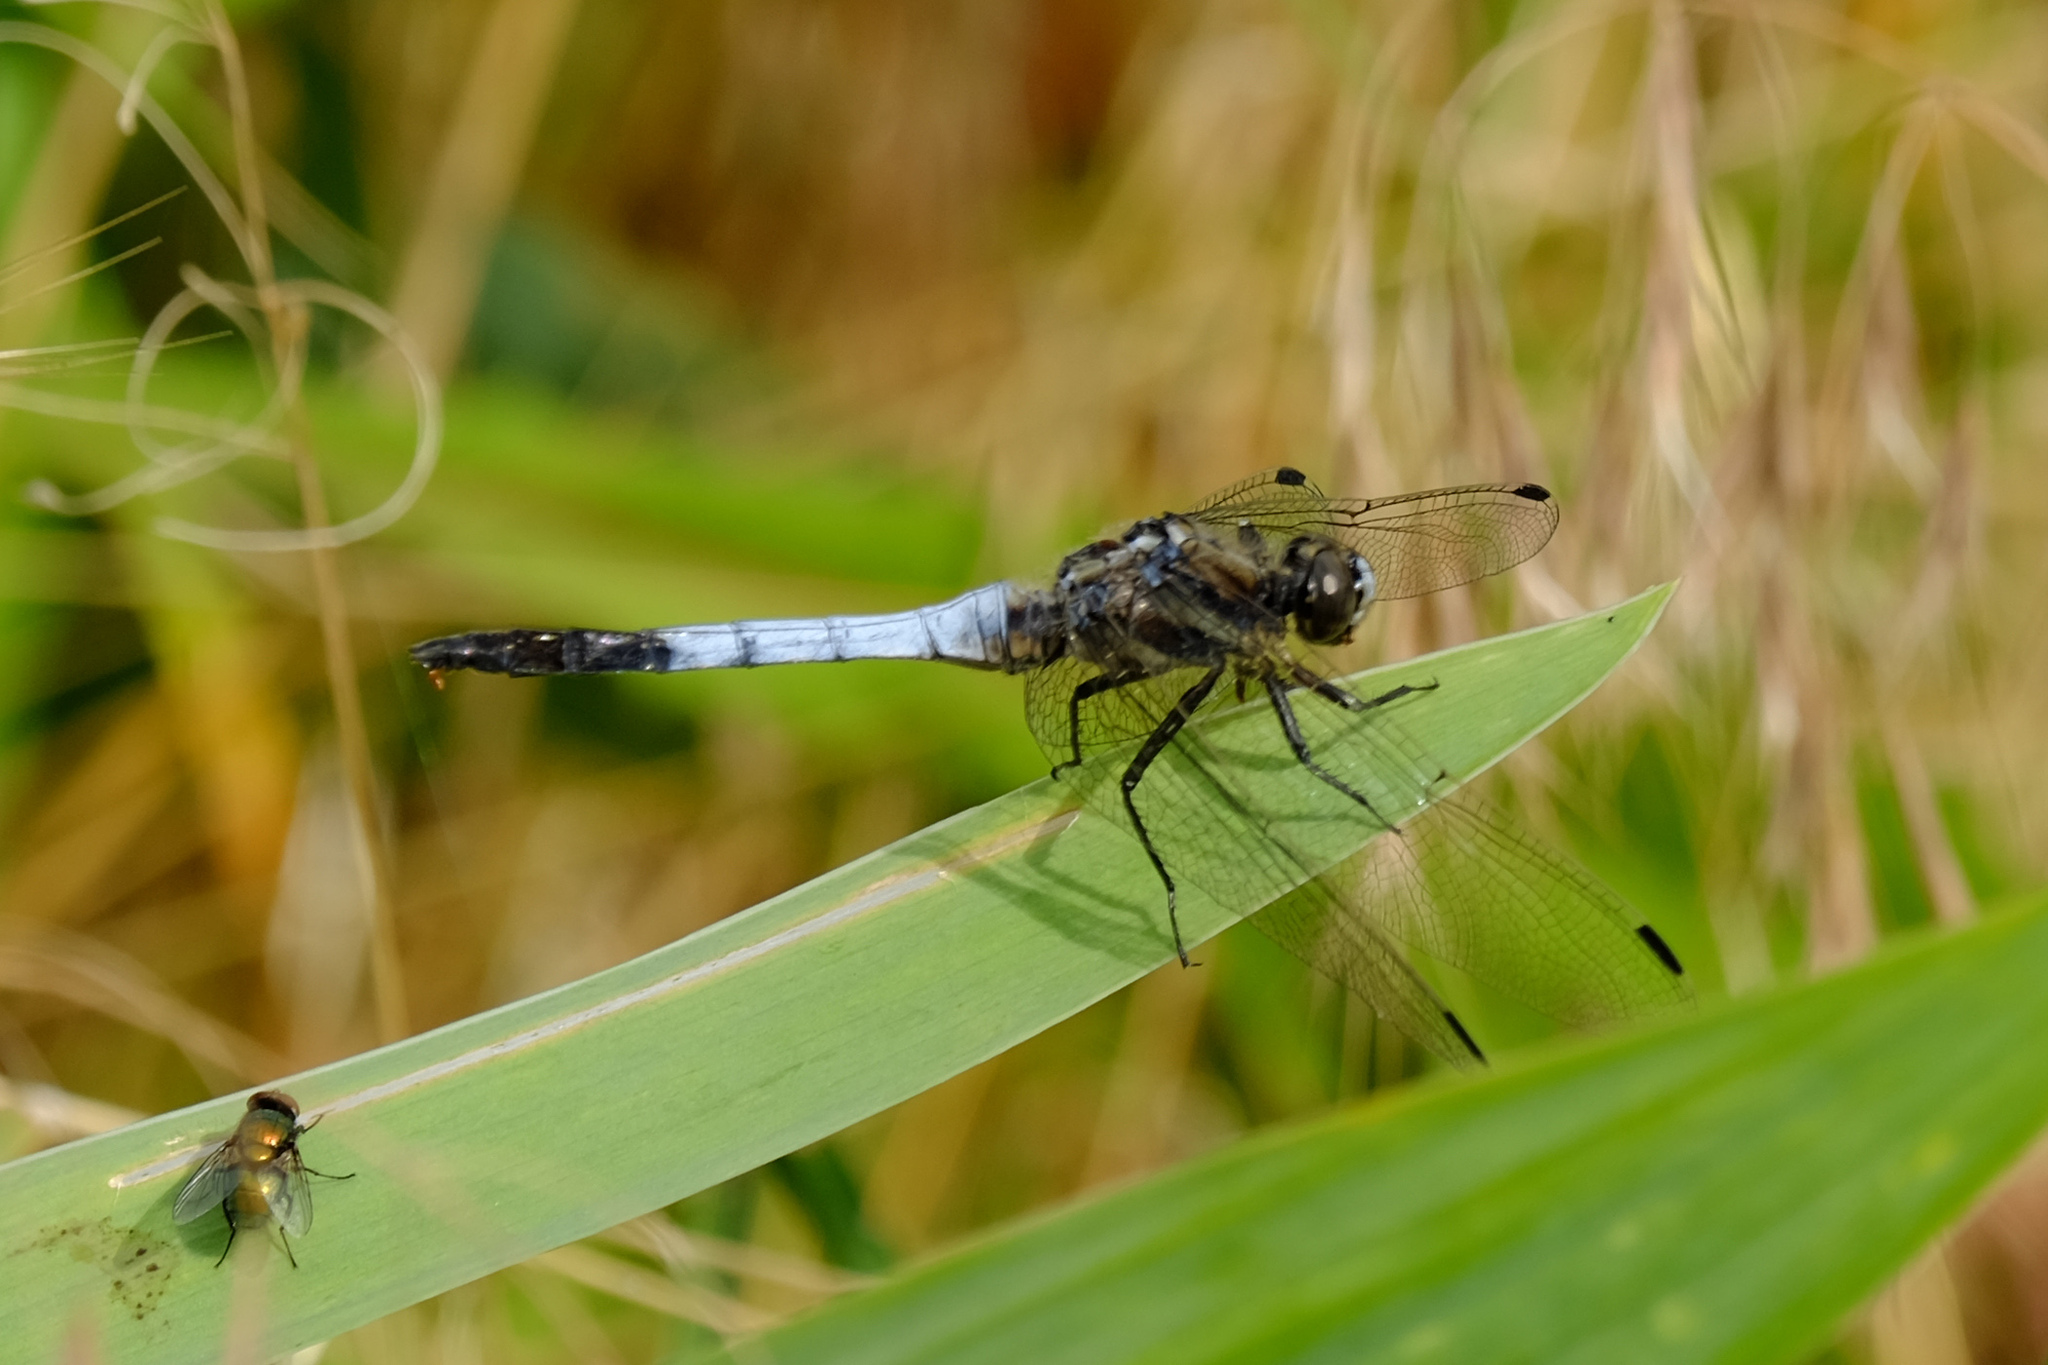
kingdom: Animalia
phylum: Arthropoda
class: Insecta
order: Odonata
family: Libellulidae
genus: Orthetrum
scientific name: Orthetrum albistylum
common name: White-tailed skimmer
